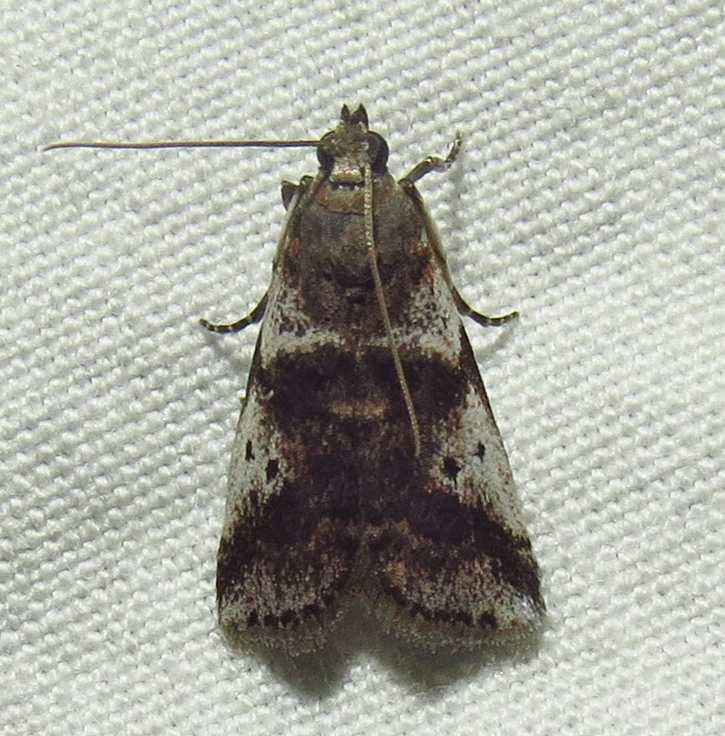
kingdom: Animalia
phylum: Arthropoda
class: Insecta
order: Lepidoptera
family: Pyralidae
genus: Acrobasis
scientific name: Acrobasis vaccinii
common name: Cranberry fruitworm moth
